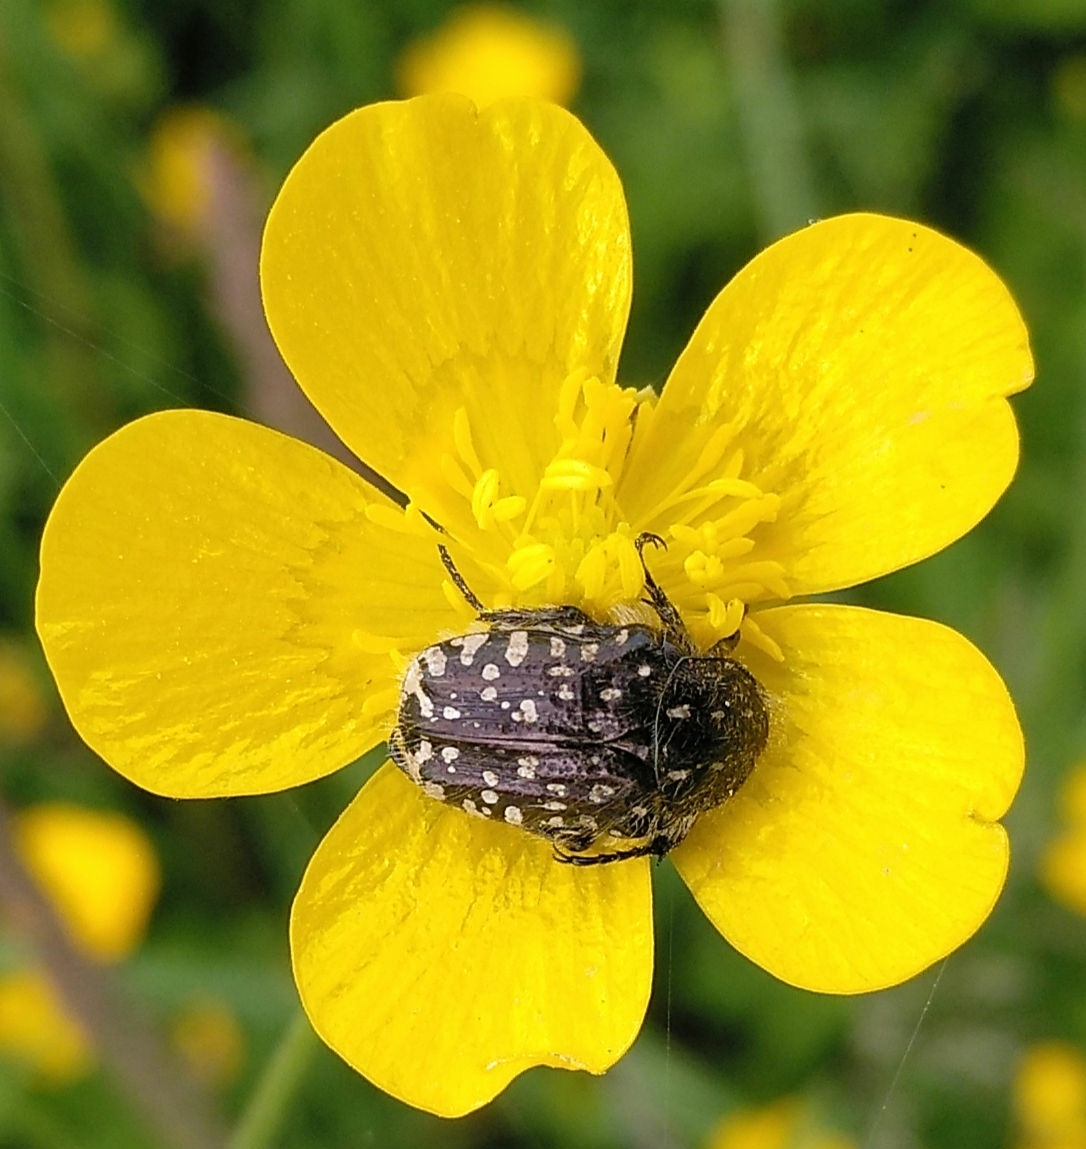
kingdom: Animalia
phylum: Arthropoda
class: Insecta
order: Coleoptera
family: Scarabaeidae
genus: Oxythyrea
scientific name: Oxythyrea funesta
